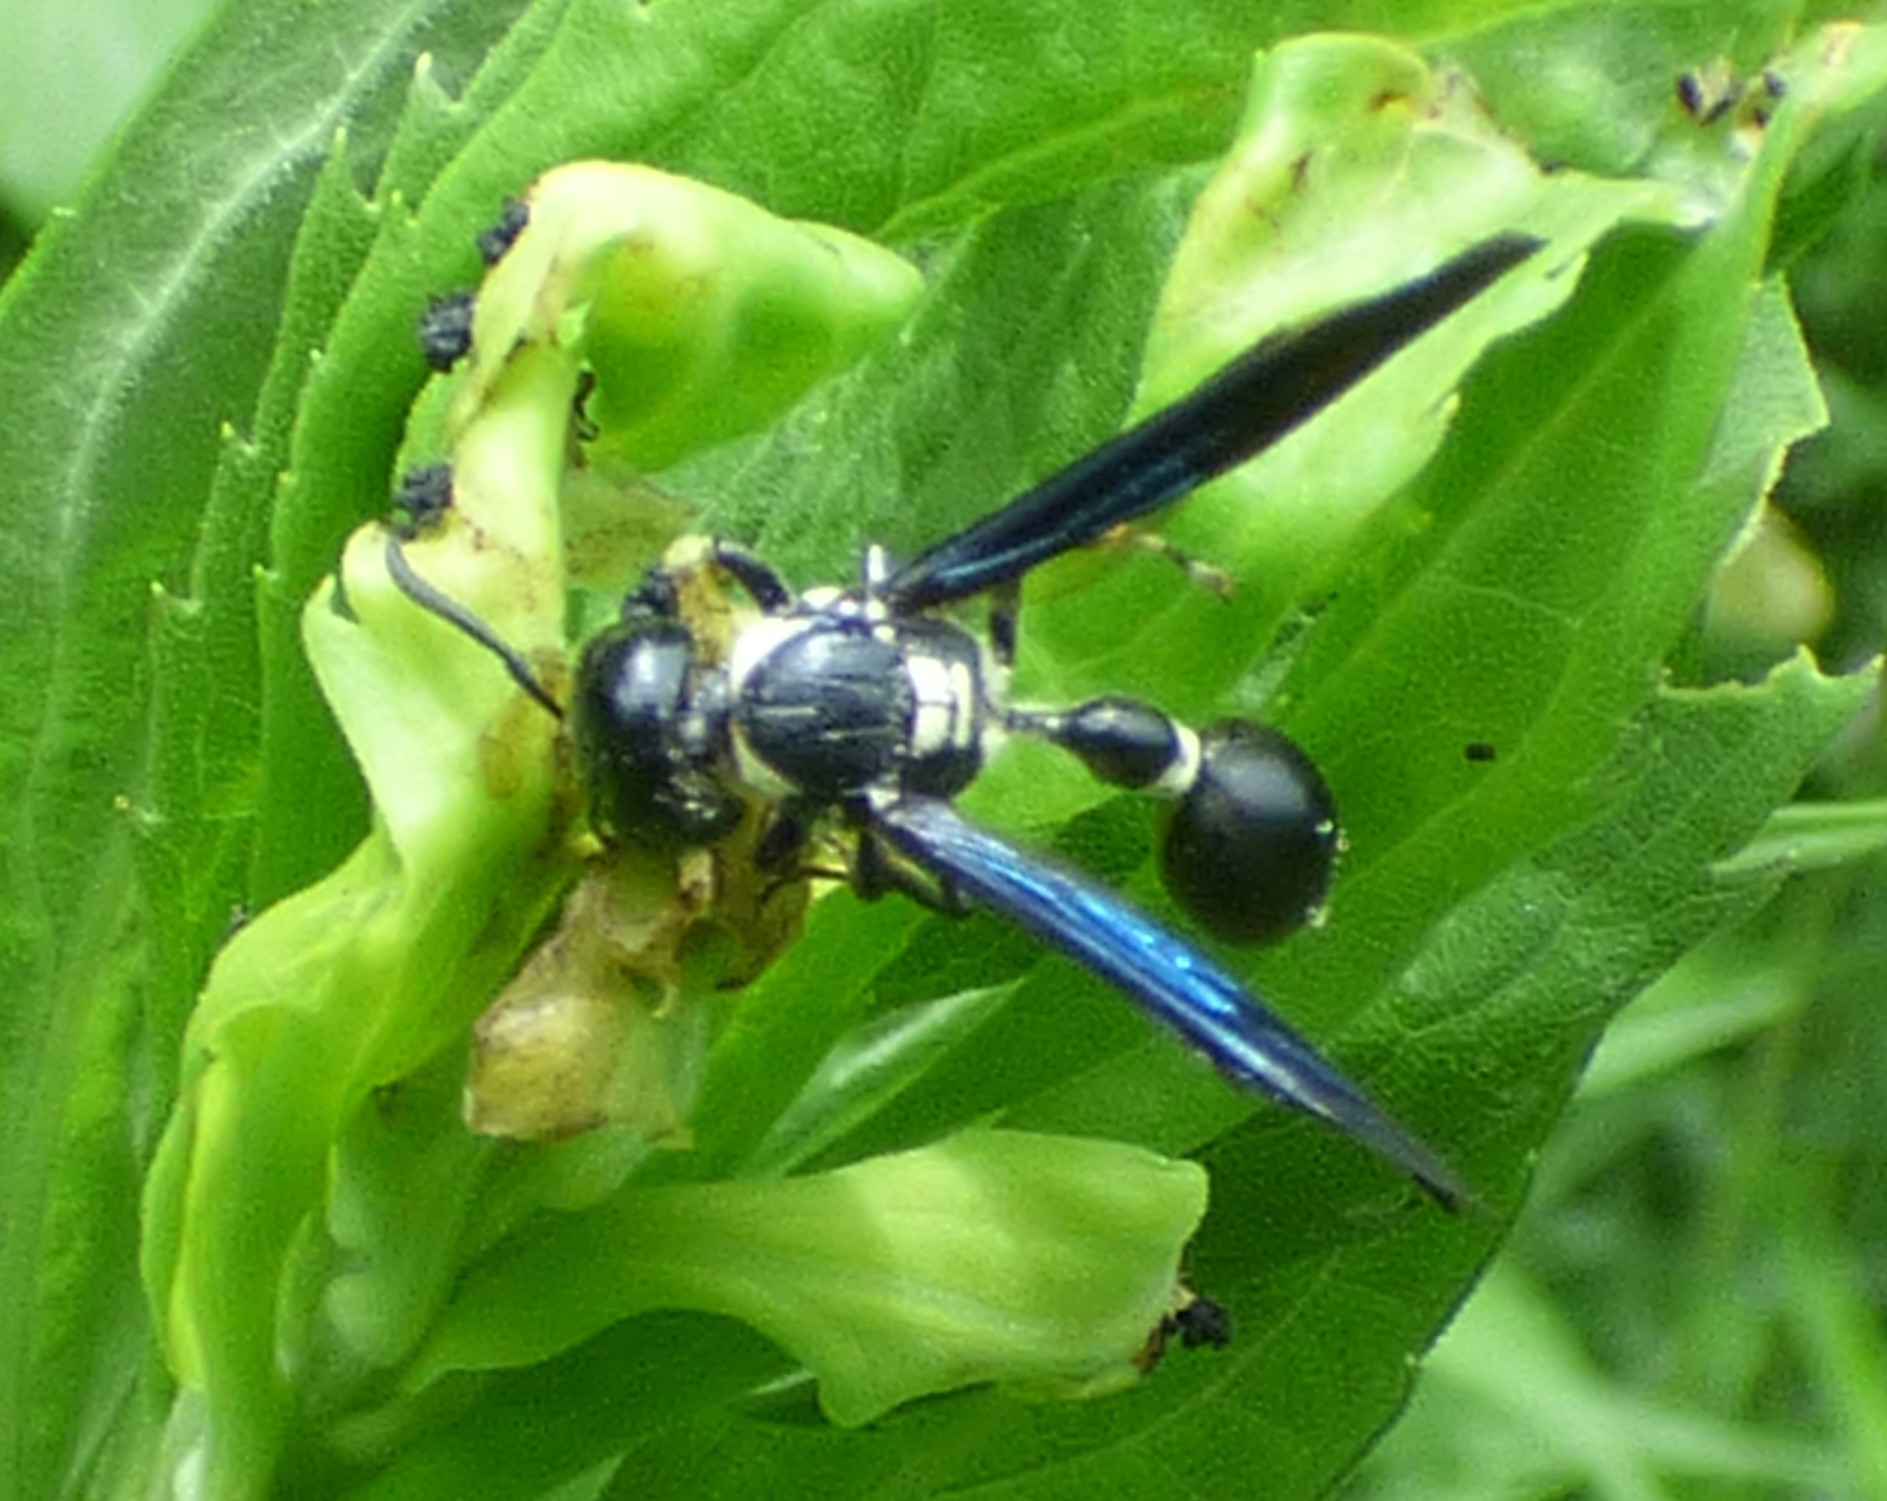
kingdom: Animalia
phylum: Arthropoda
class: Insecta
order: Hymenoptera
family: Eumenidae
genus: Zethus
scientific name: Zethus spinipes
